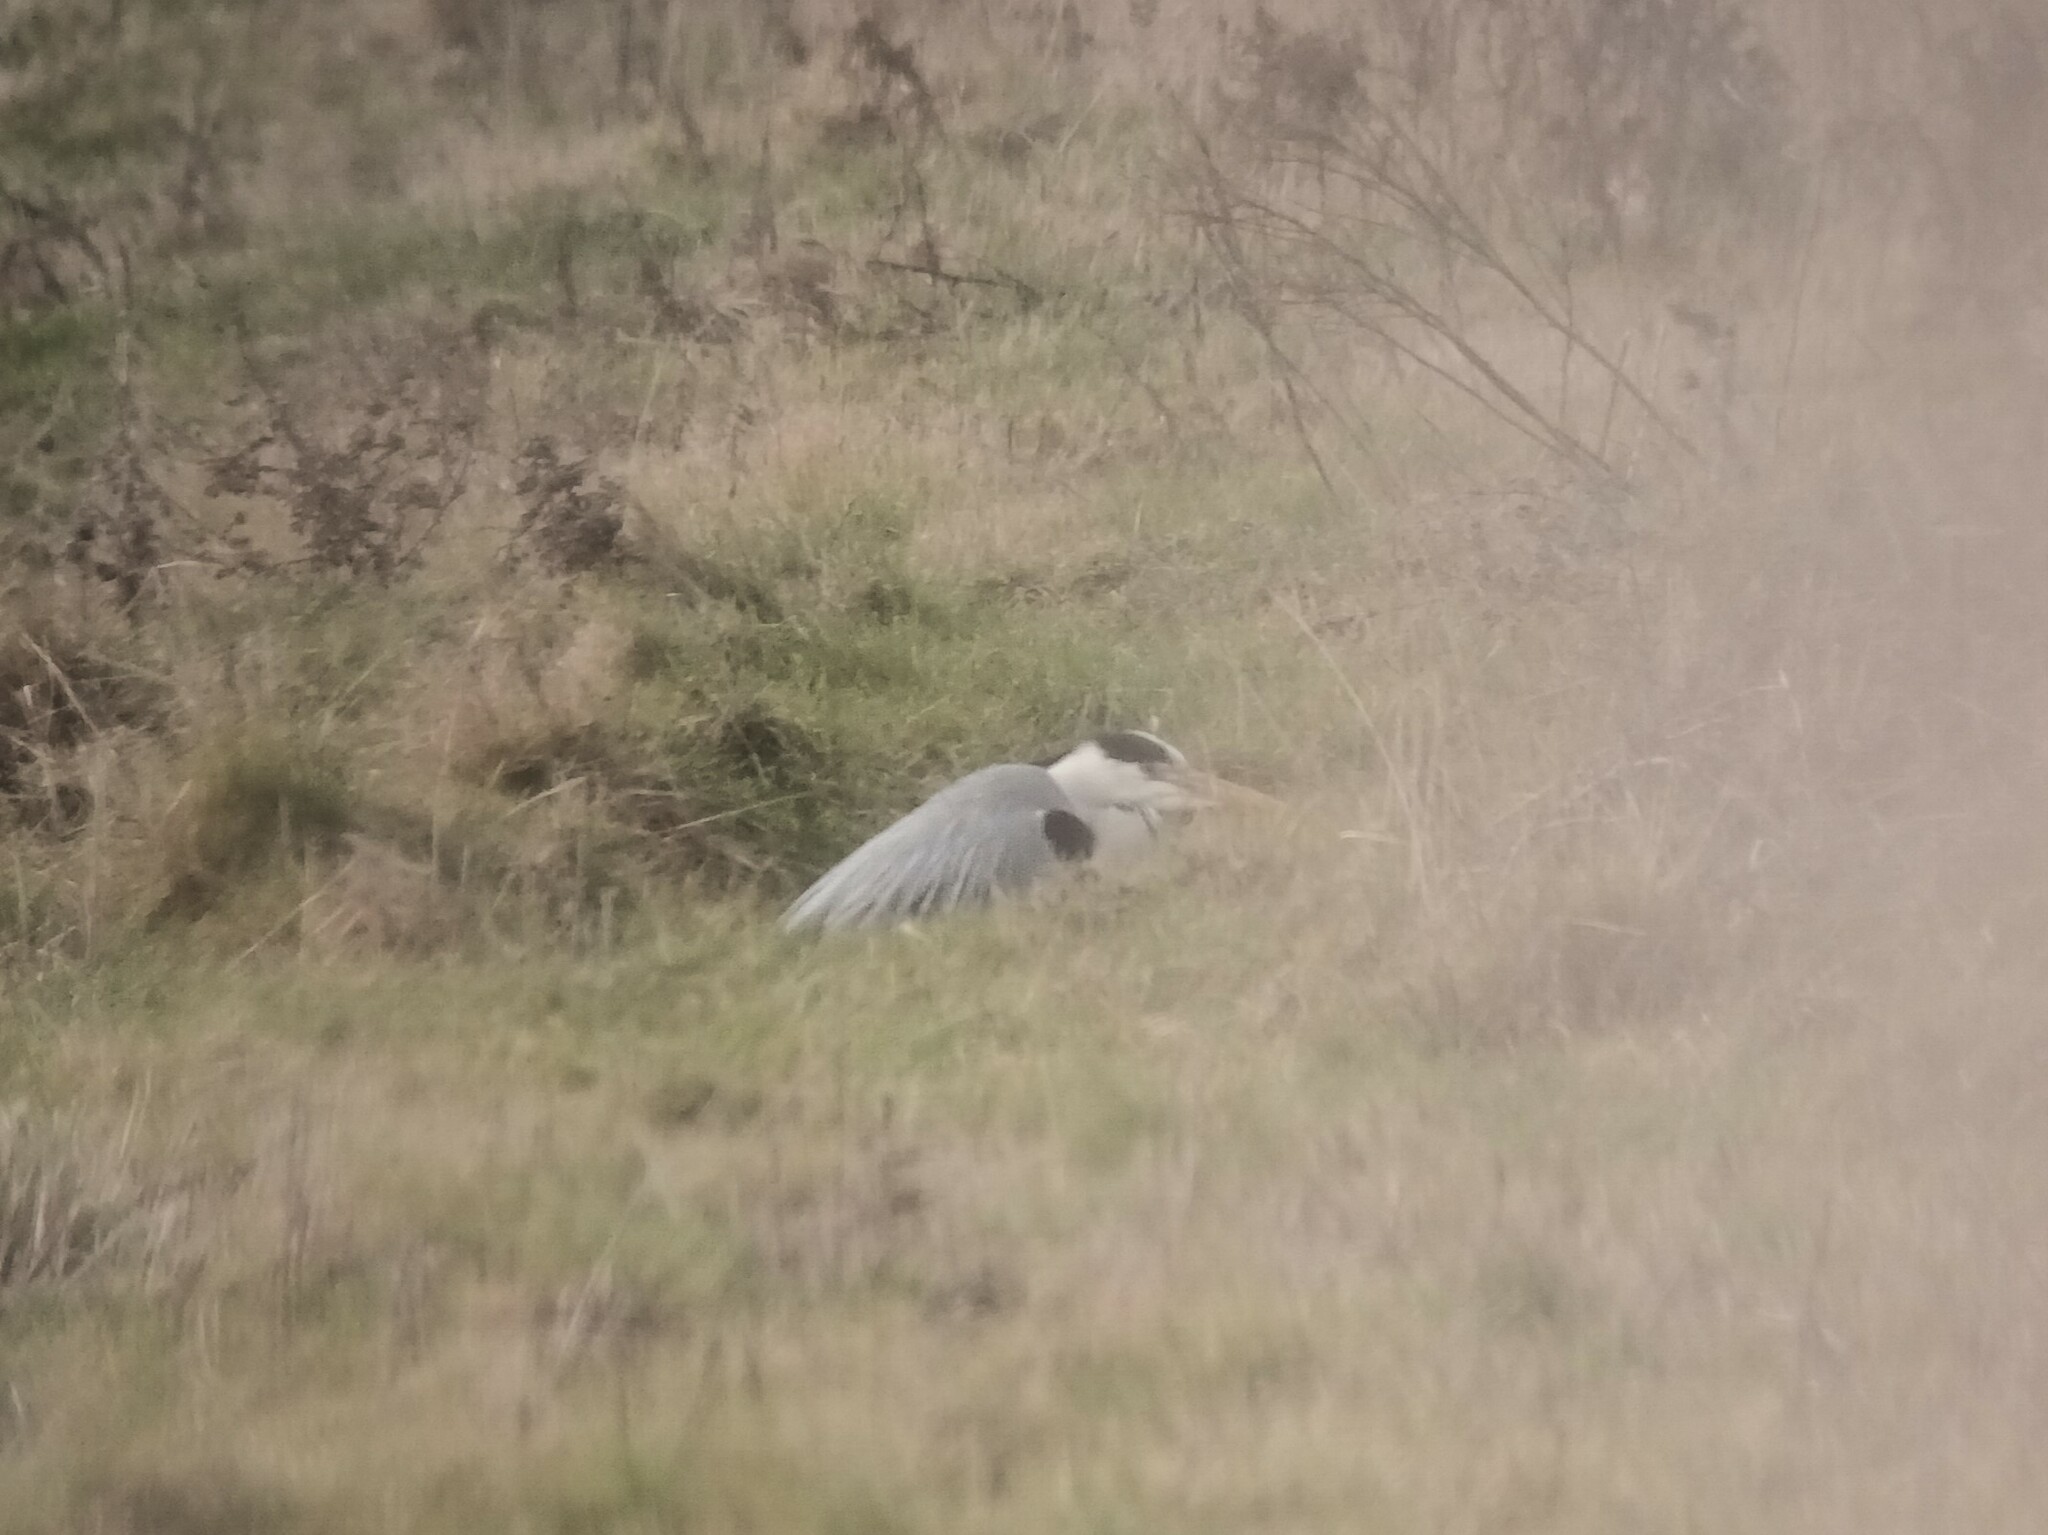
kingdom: Animalia
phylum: Chordata
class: Aves
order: Pelecaniformes
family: Ardeidae
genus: Ardea
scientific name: Ardea cinerea
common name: Grey heron
